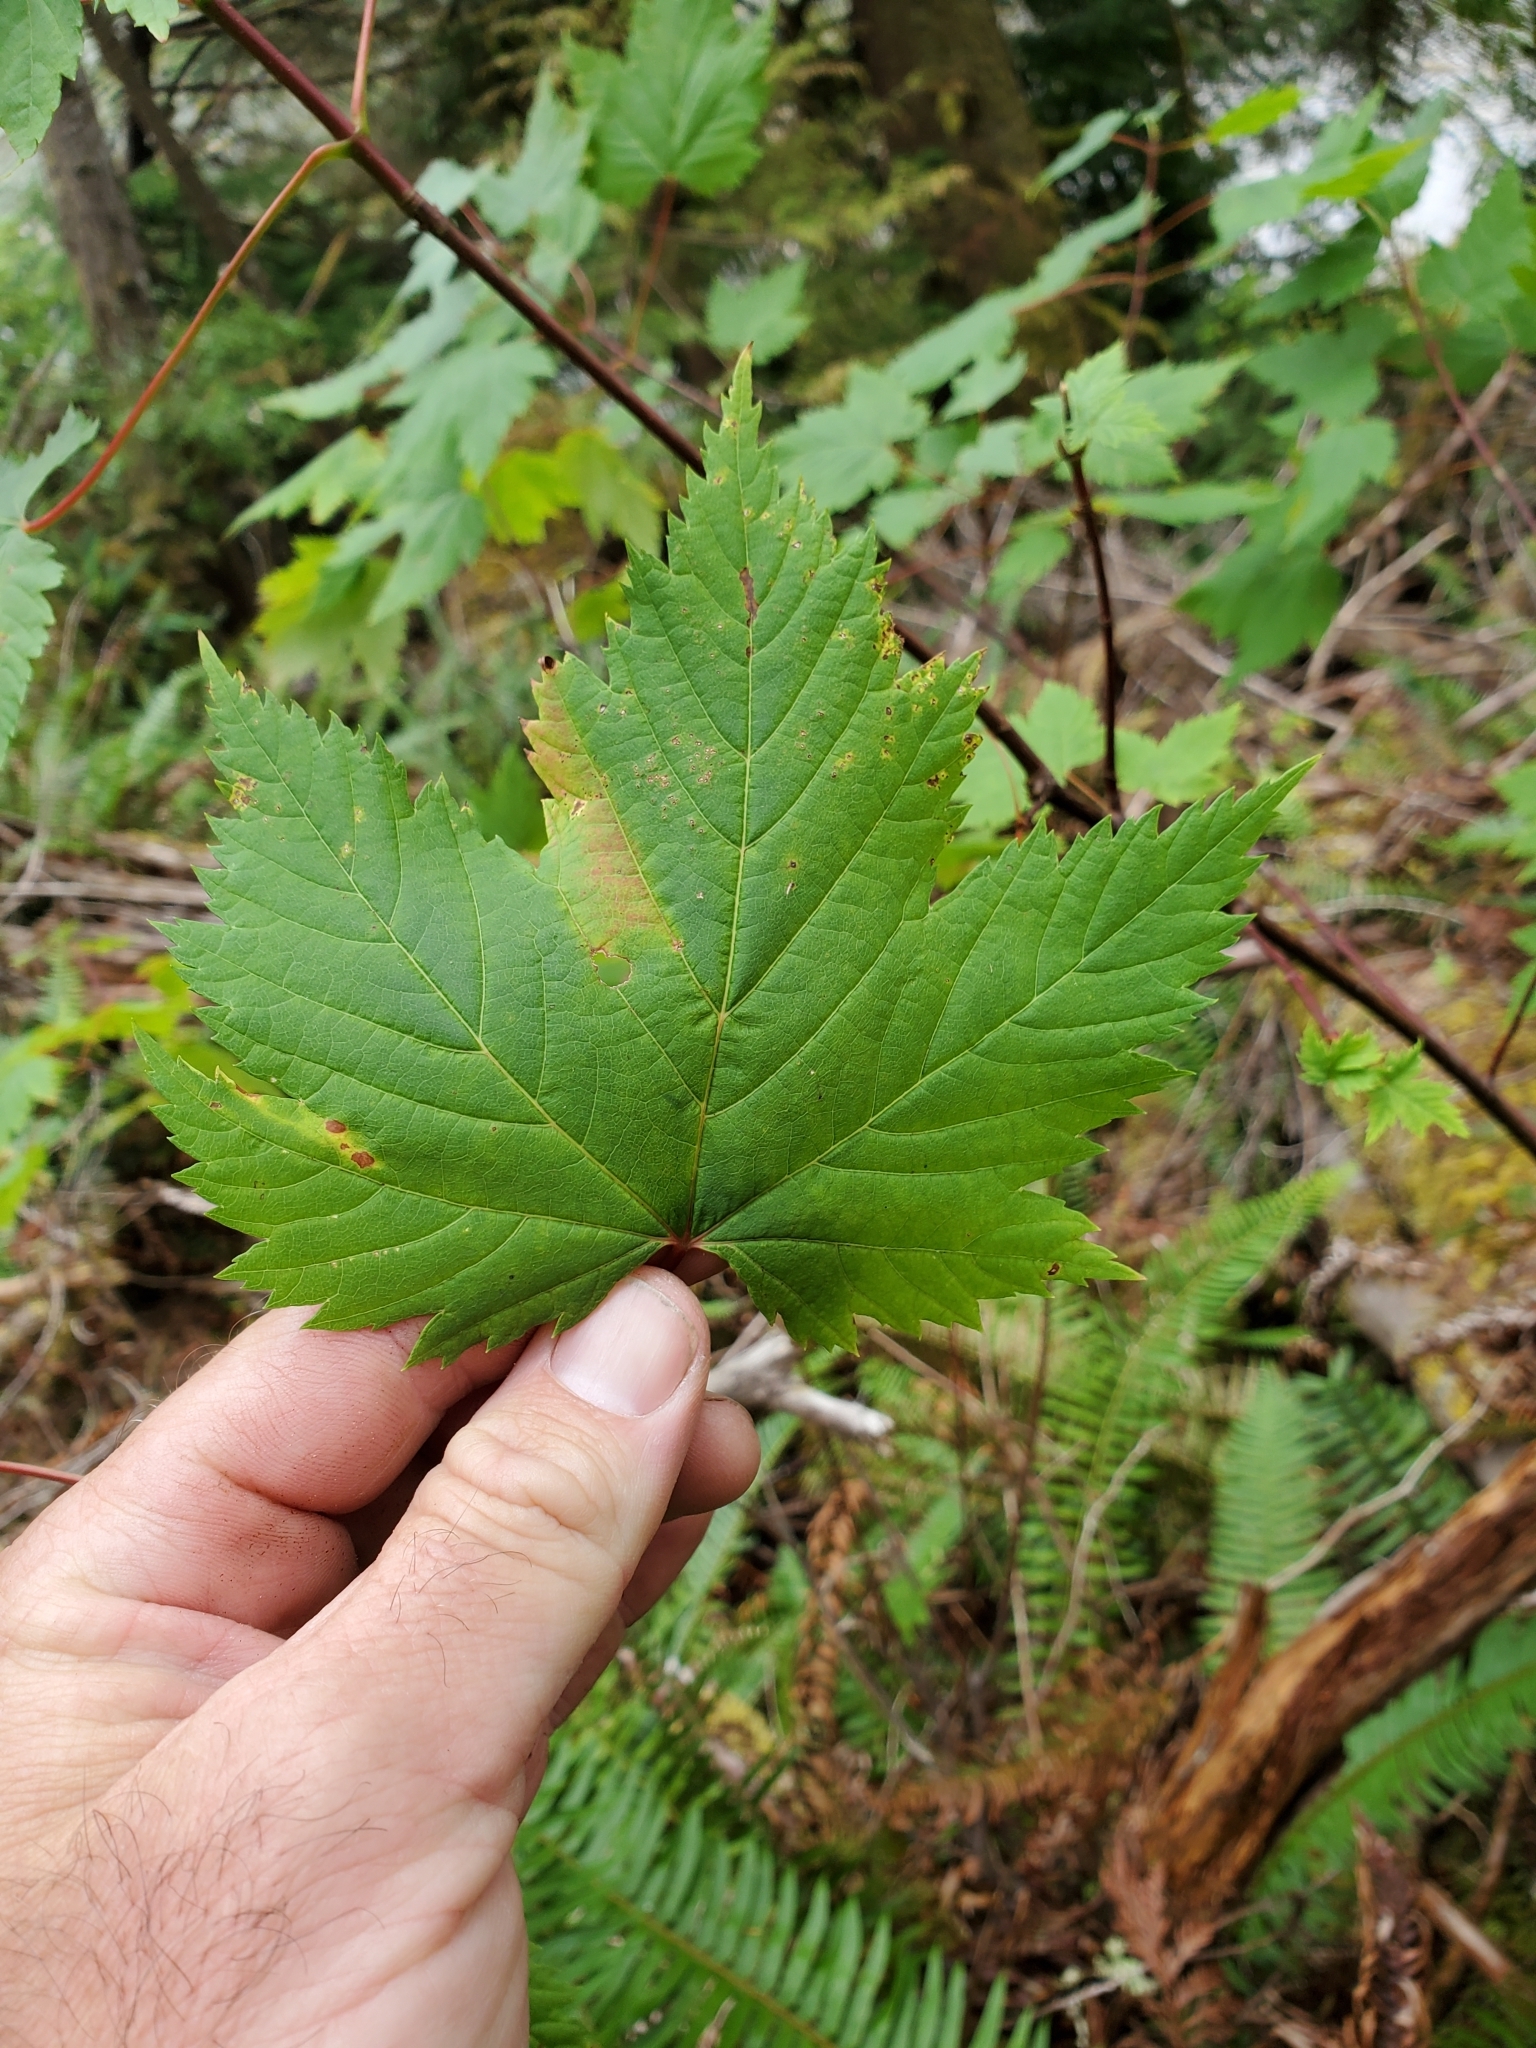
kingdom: Plantae
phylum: Tracheophyta
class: Magnoliopsida
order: Sapindales
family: Sapindaceae
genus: Acer
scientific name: Acer glabrum
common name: Rocky mountain maple
